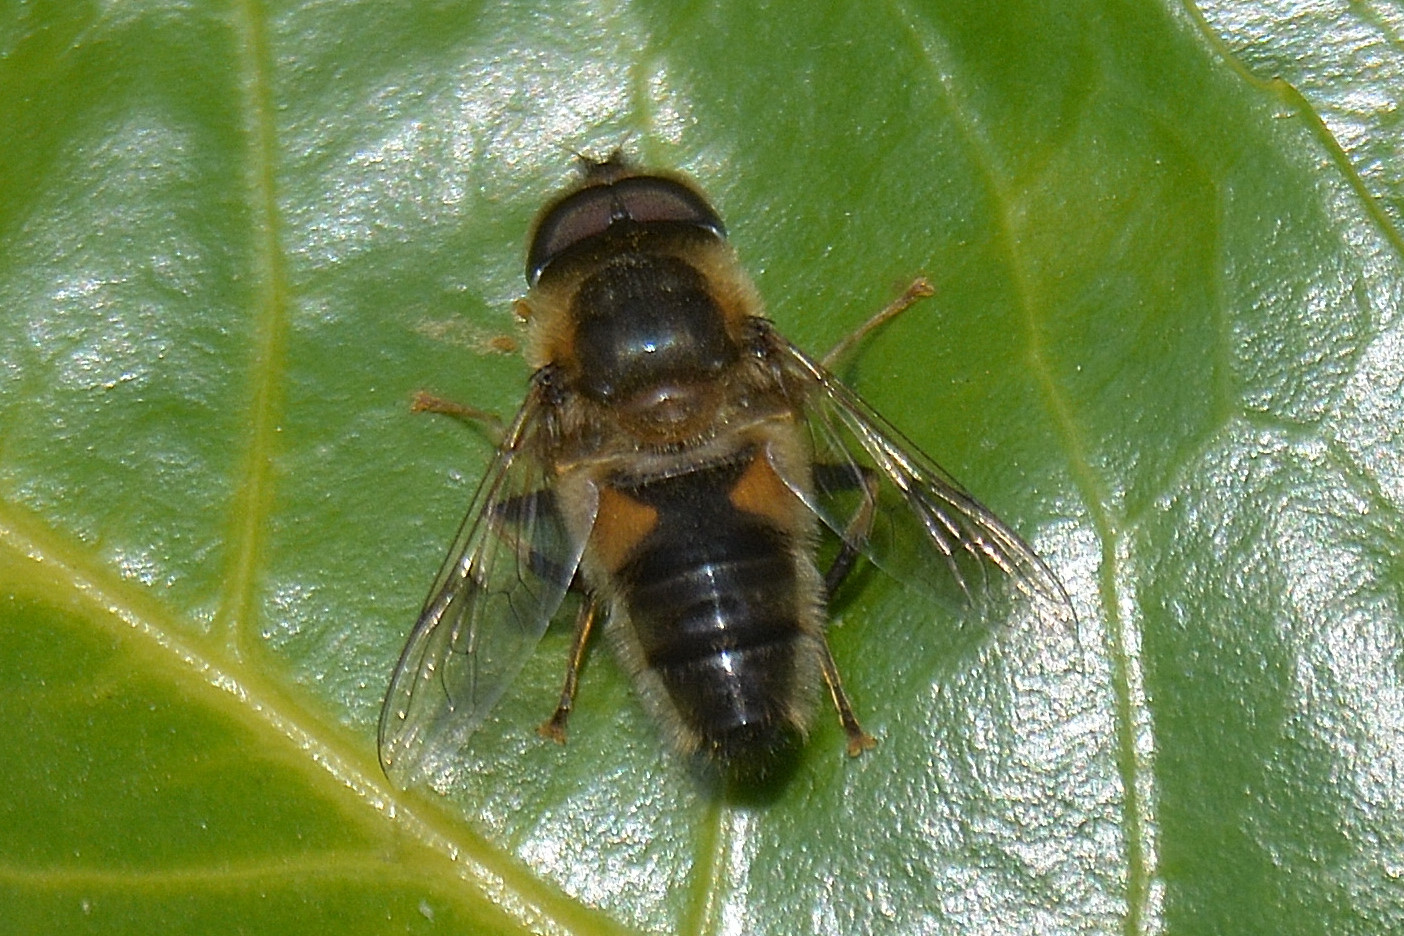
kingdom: Animalia
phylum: Arthropoda
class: Insecta
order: Diptera
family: Syrphidae
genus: Eristalis
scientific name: Eristalis pertinax
